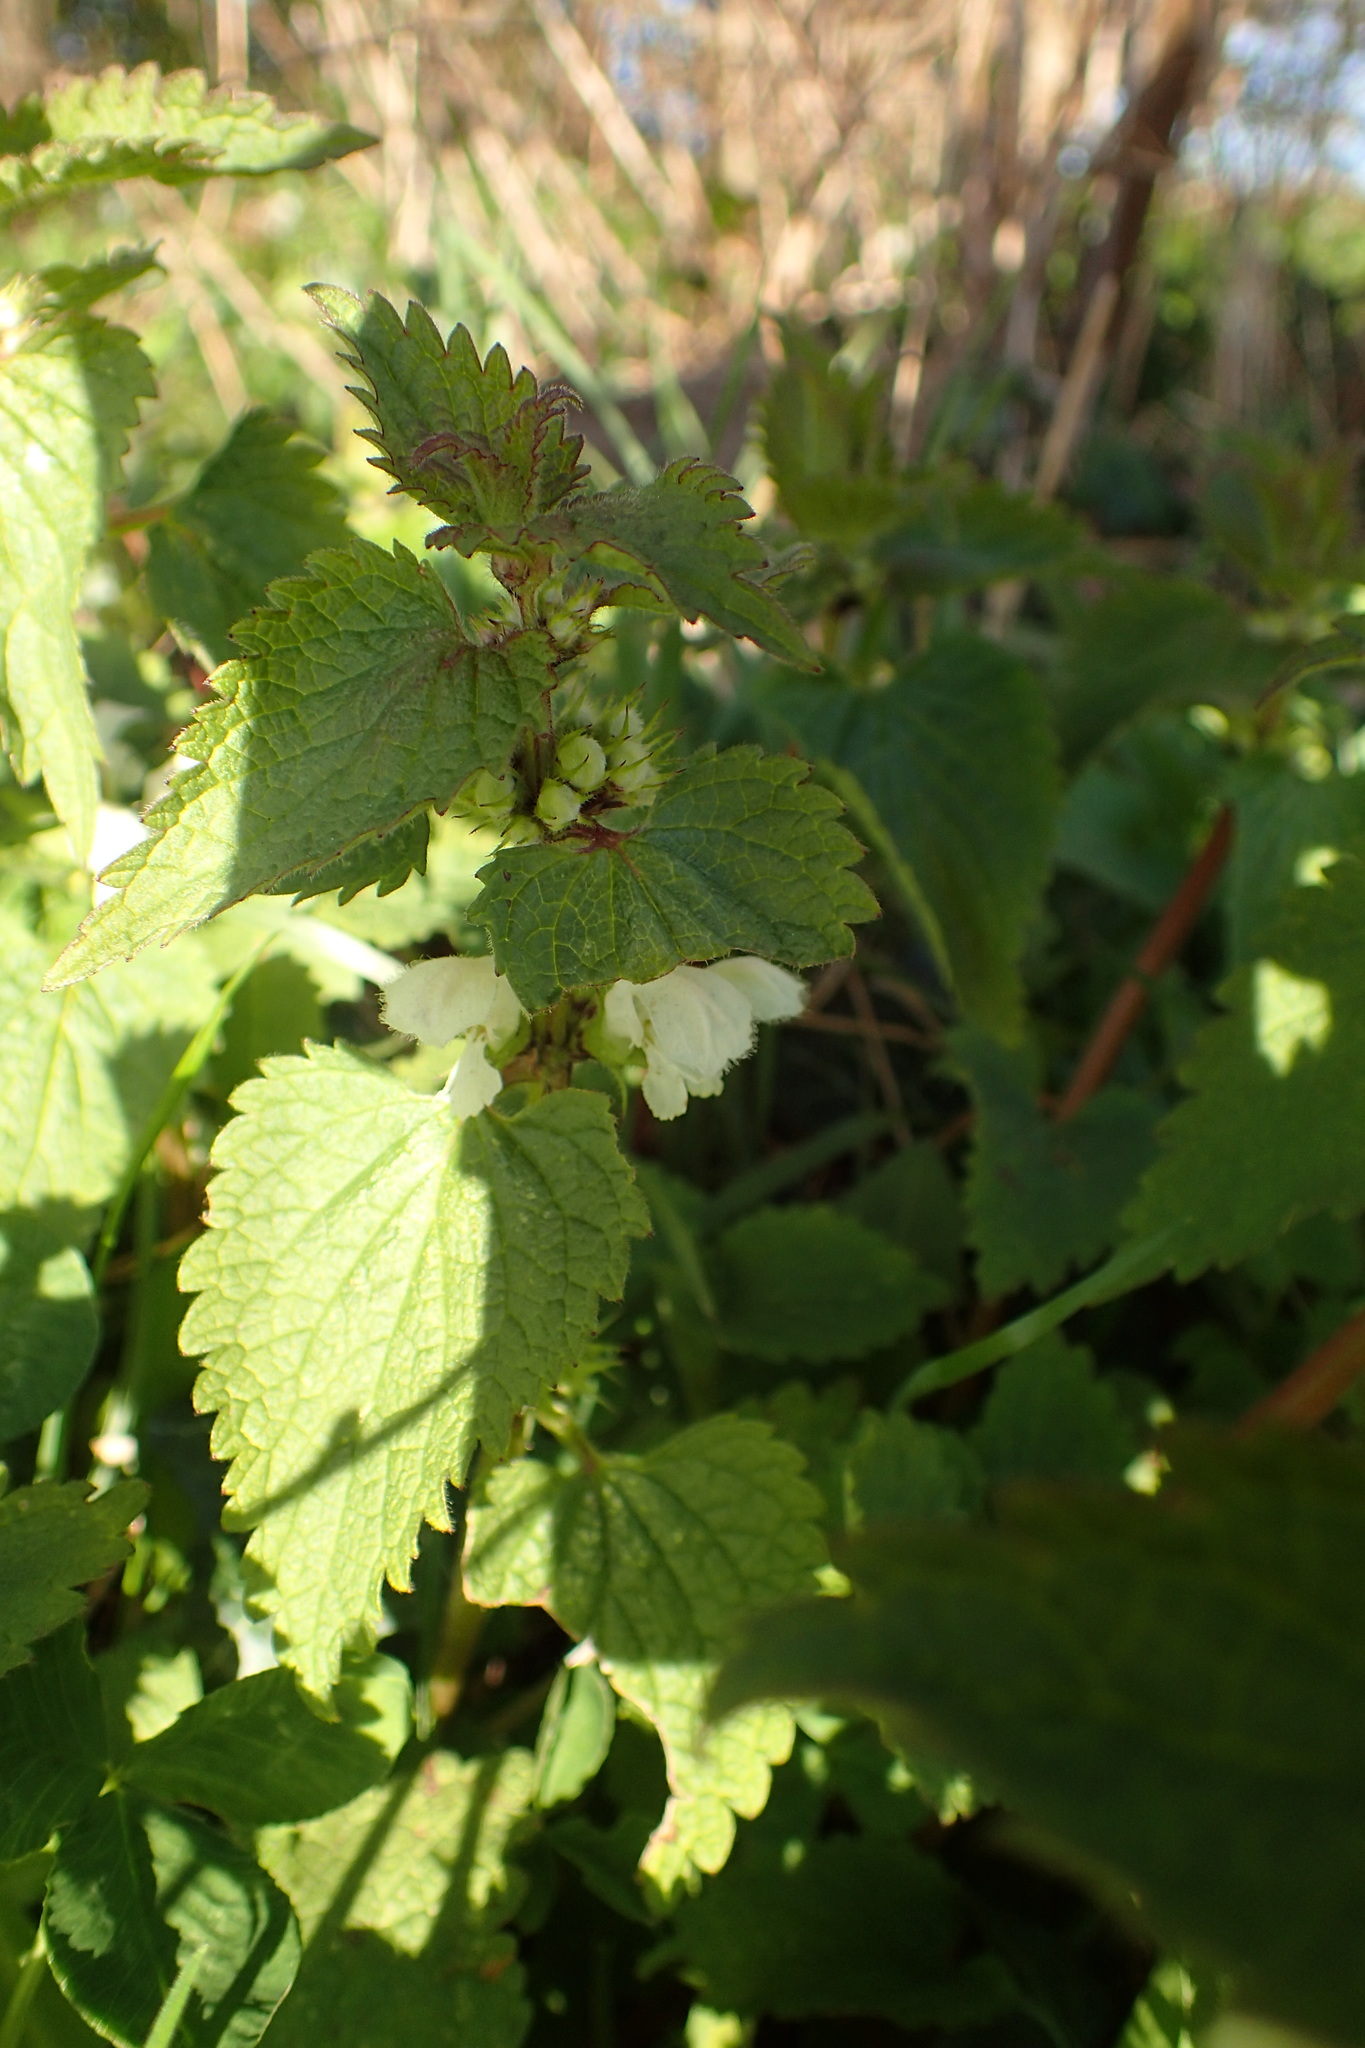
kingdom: Plantae
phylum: Tracheophyta
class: Magnoliopsida
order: Lamiales
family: Lamiaceae
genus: Lamium
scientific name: Lamium album
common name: White dead-nettle
